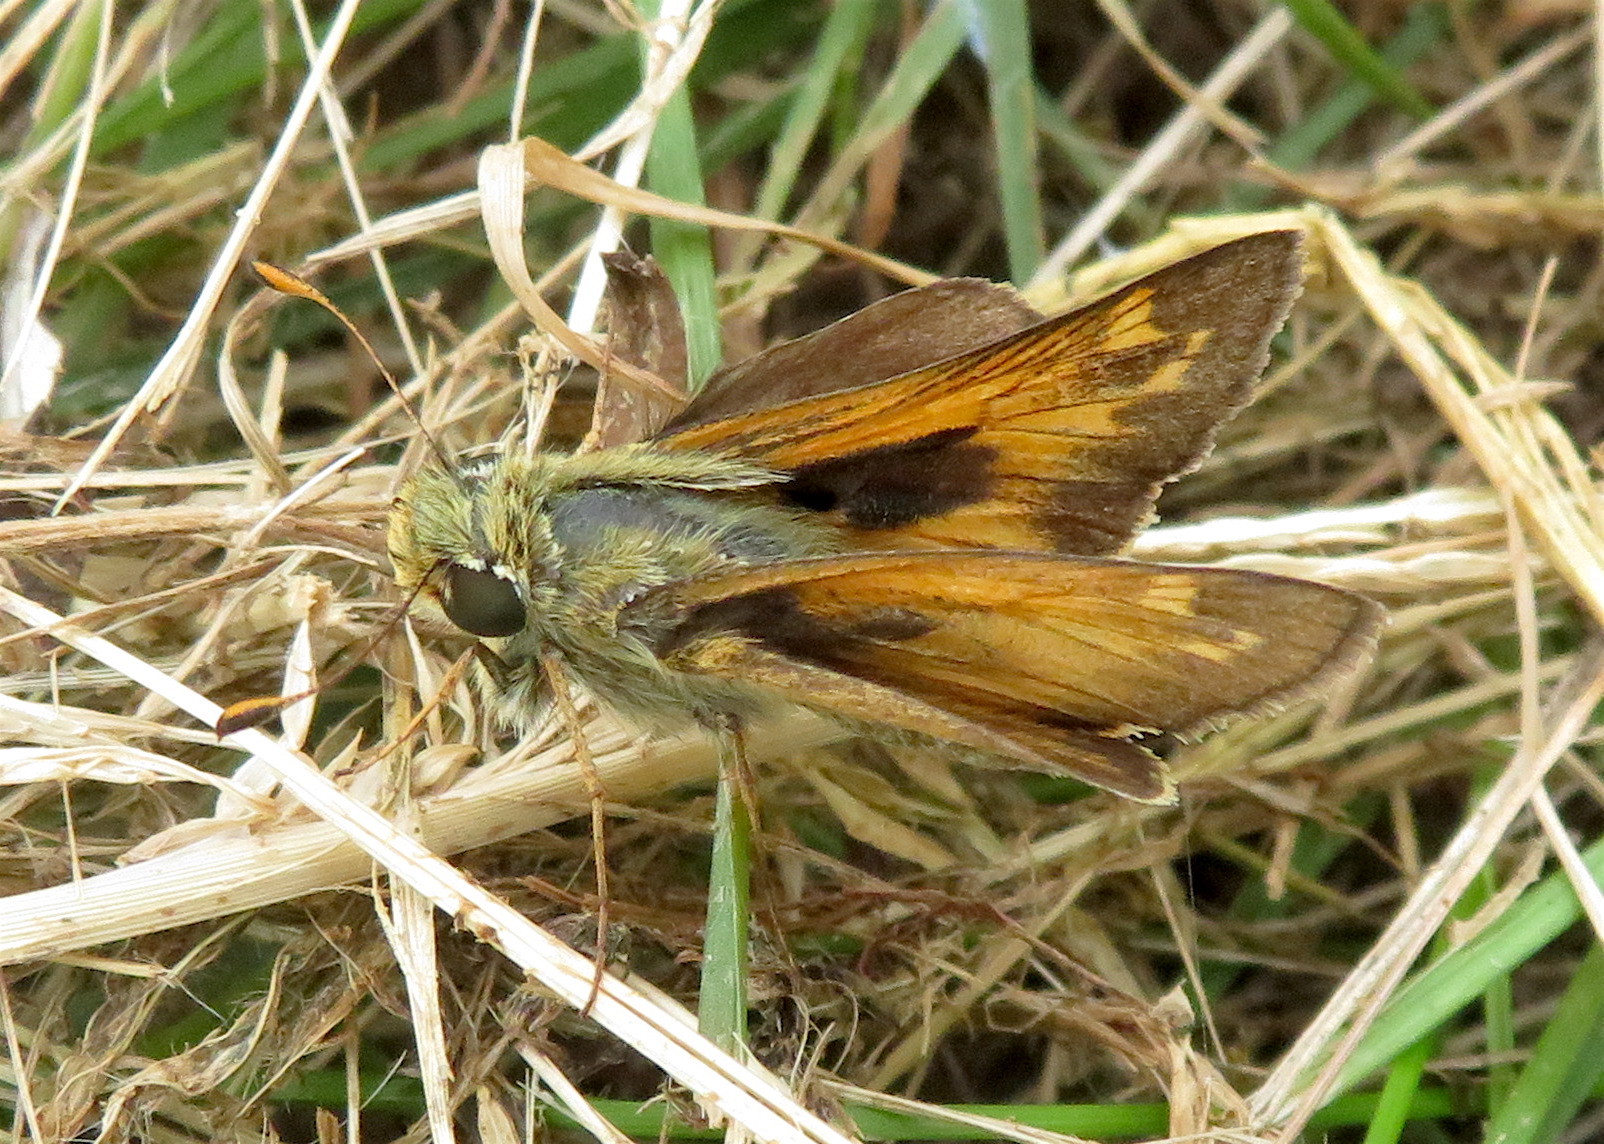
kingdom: Animalia
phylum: Arthropoda
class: Insecta
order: Lepidoptera
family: Hesperiidae
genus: Atalopedes
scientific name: Atalopedes
